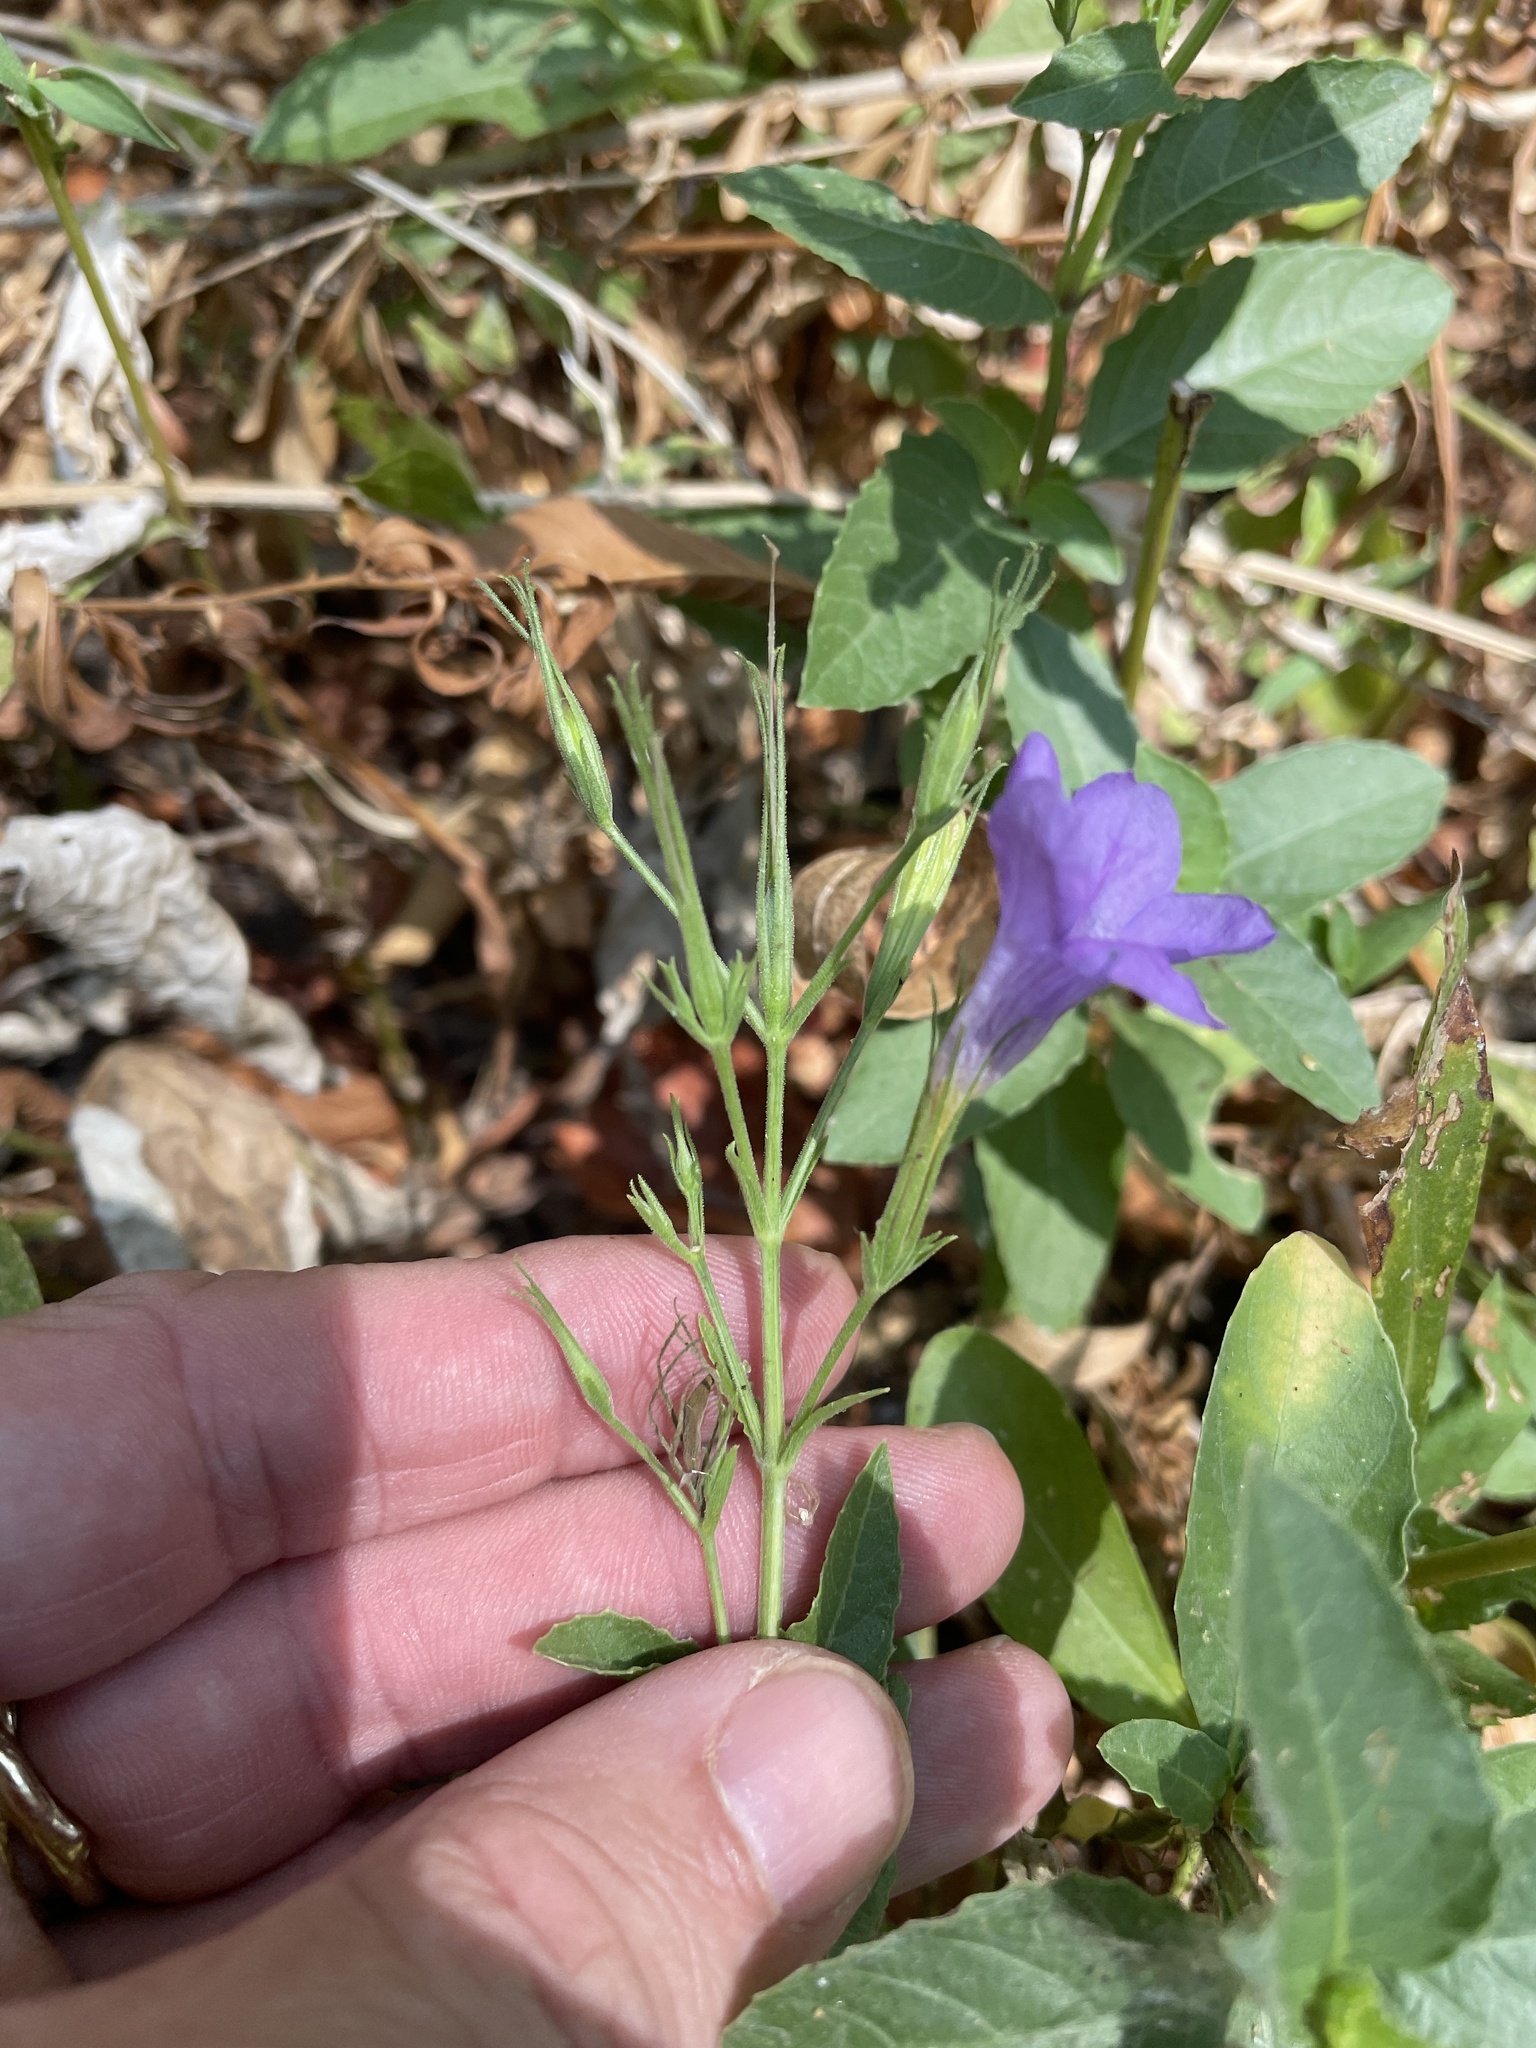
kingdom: Plantae
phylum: Tracheophyta
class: Magnoliopsida
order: Lamiales
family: Acanthaceae
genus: Ruellia
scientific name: Ruellia ciliatiflora
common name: Hairyflower wild petunia
